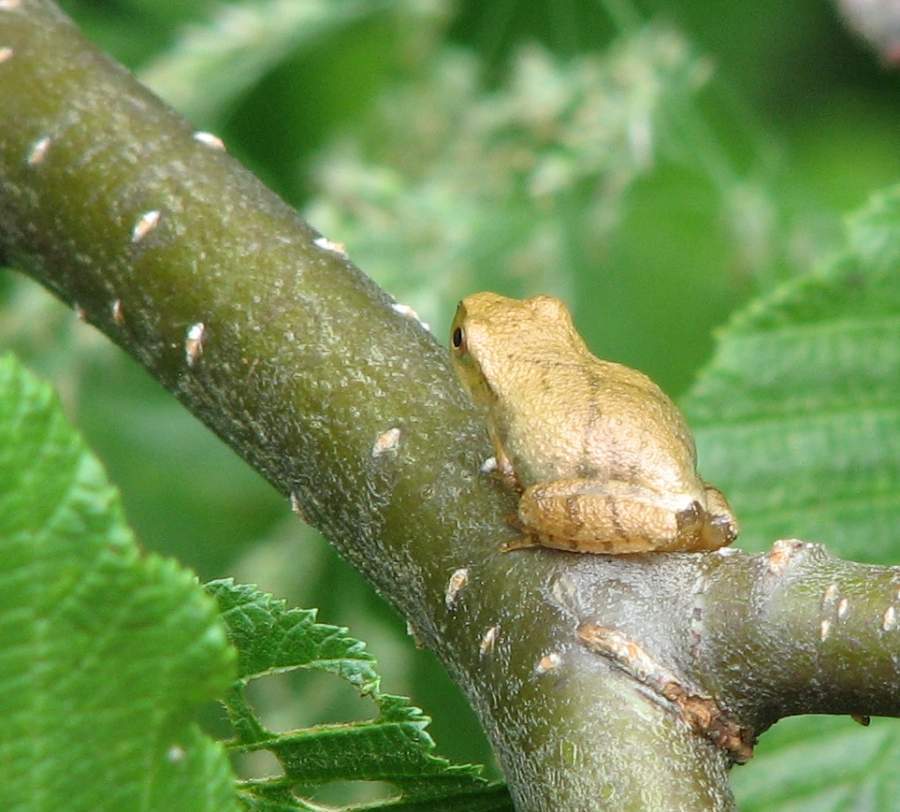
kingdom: Animalia
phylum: Chordata
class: Amphibia
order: Anura
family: Hylidae
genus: Pseudacris
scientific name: Pseudacris crucifer
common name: Spring peeper
